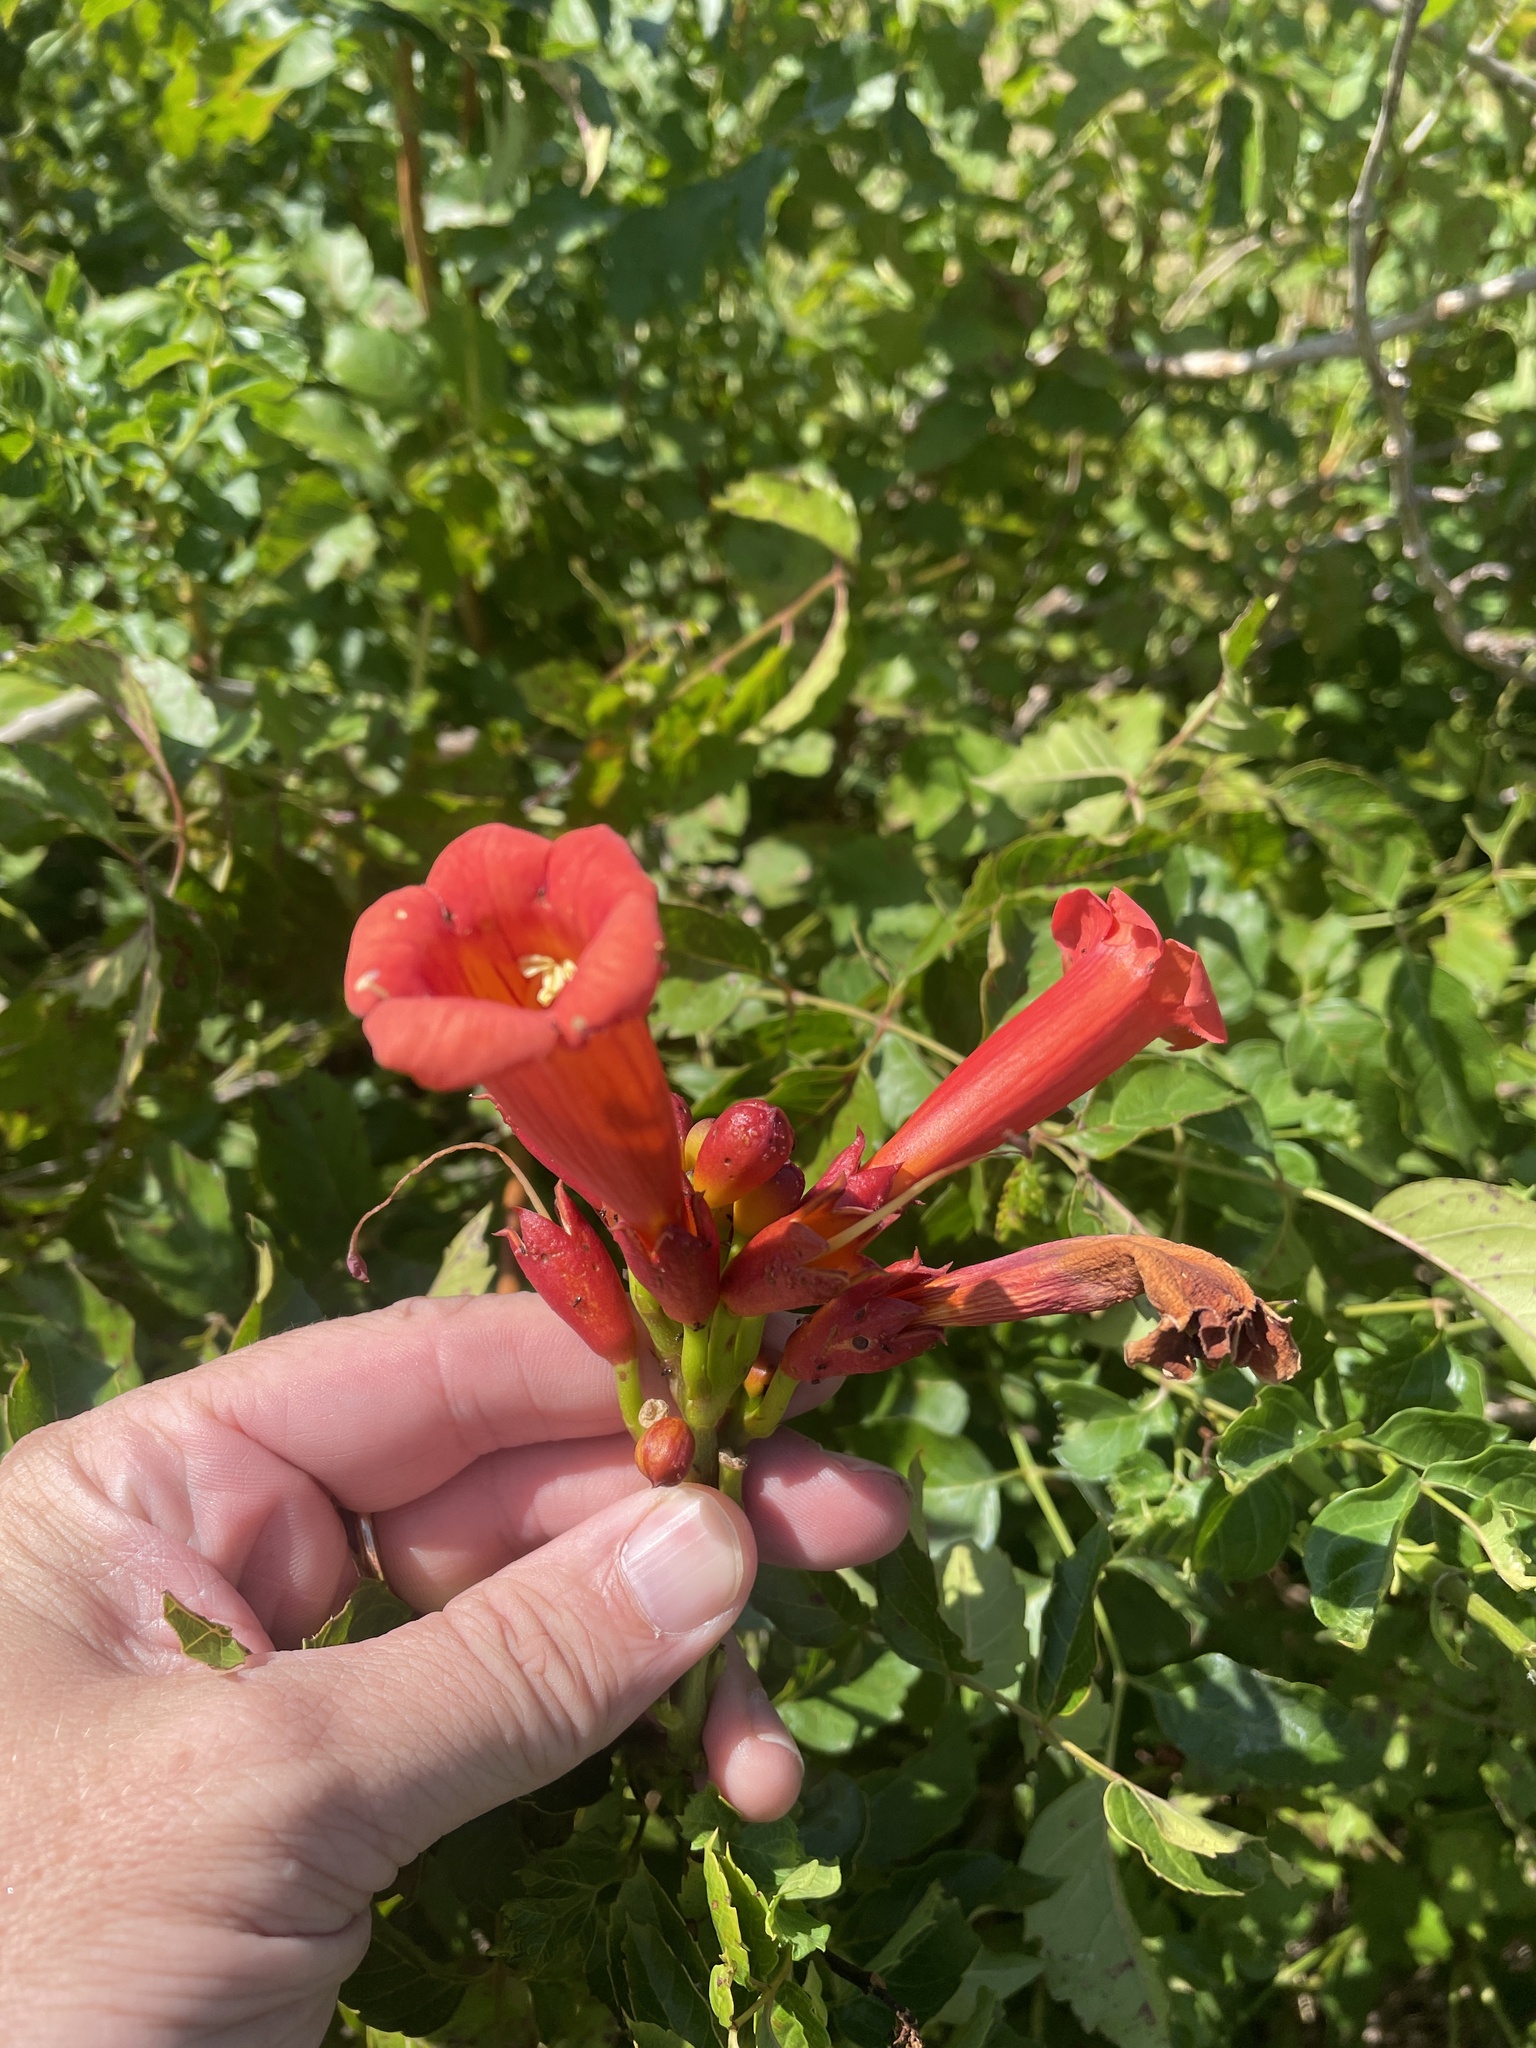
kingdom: Plantae
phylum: Tracheophyta
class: Magnoliopsida
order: Lamiales
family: Bignoniaceae
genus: Campsis
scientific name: Campsis radicans
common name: Trumpet-creeper
